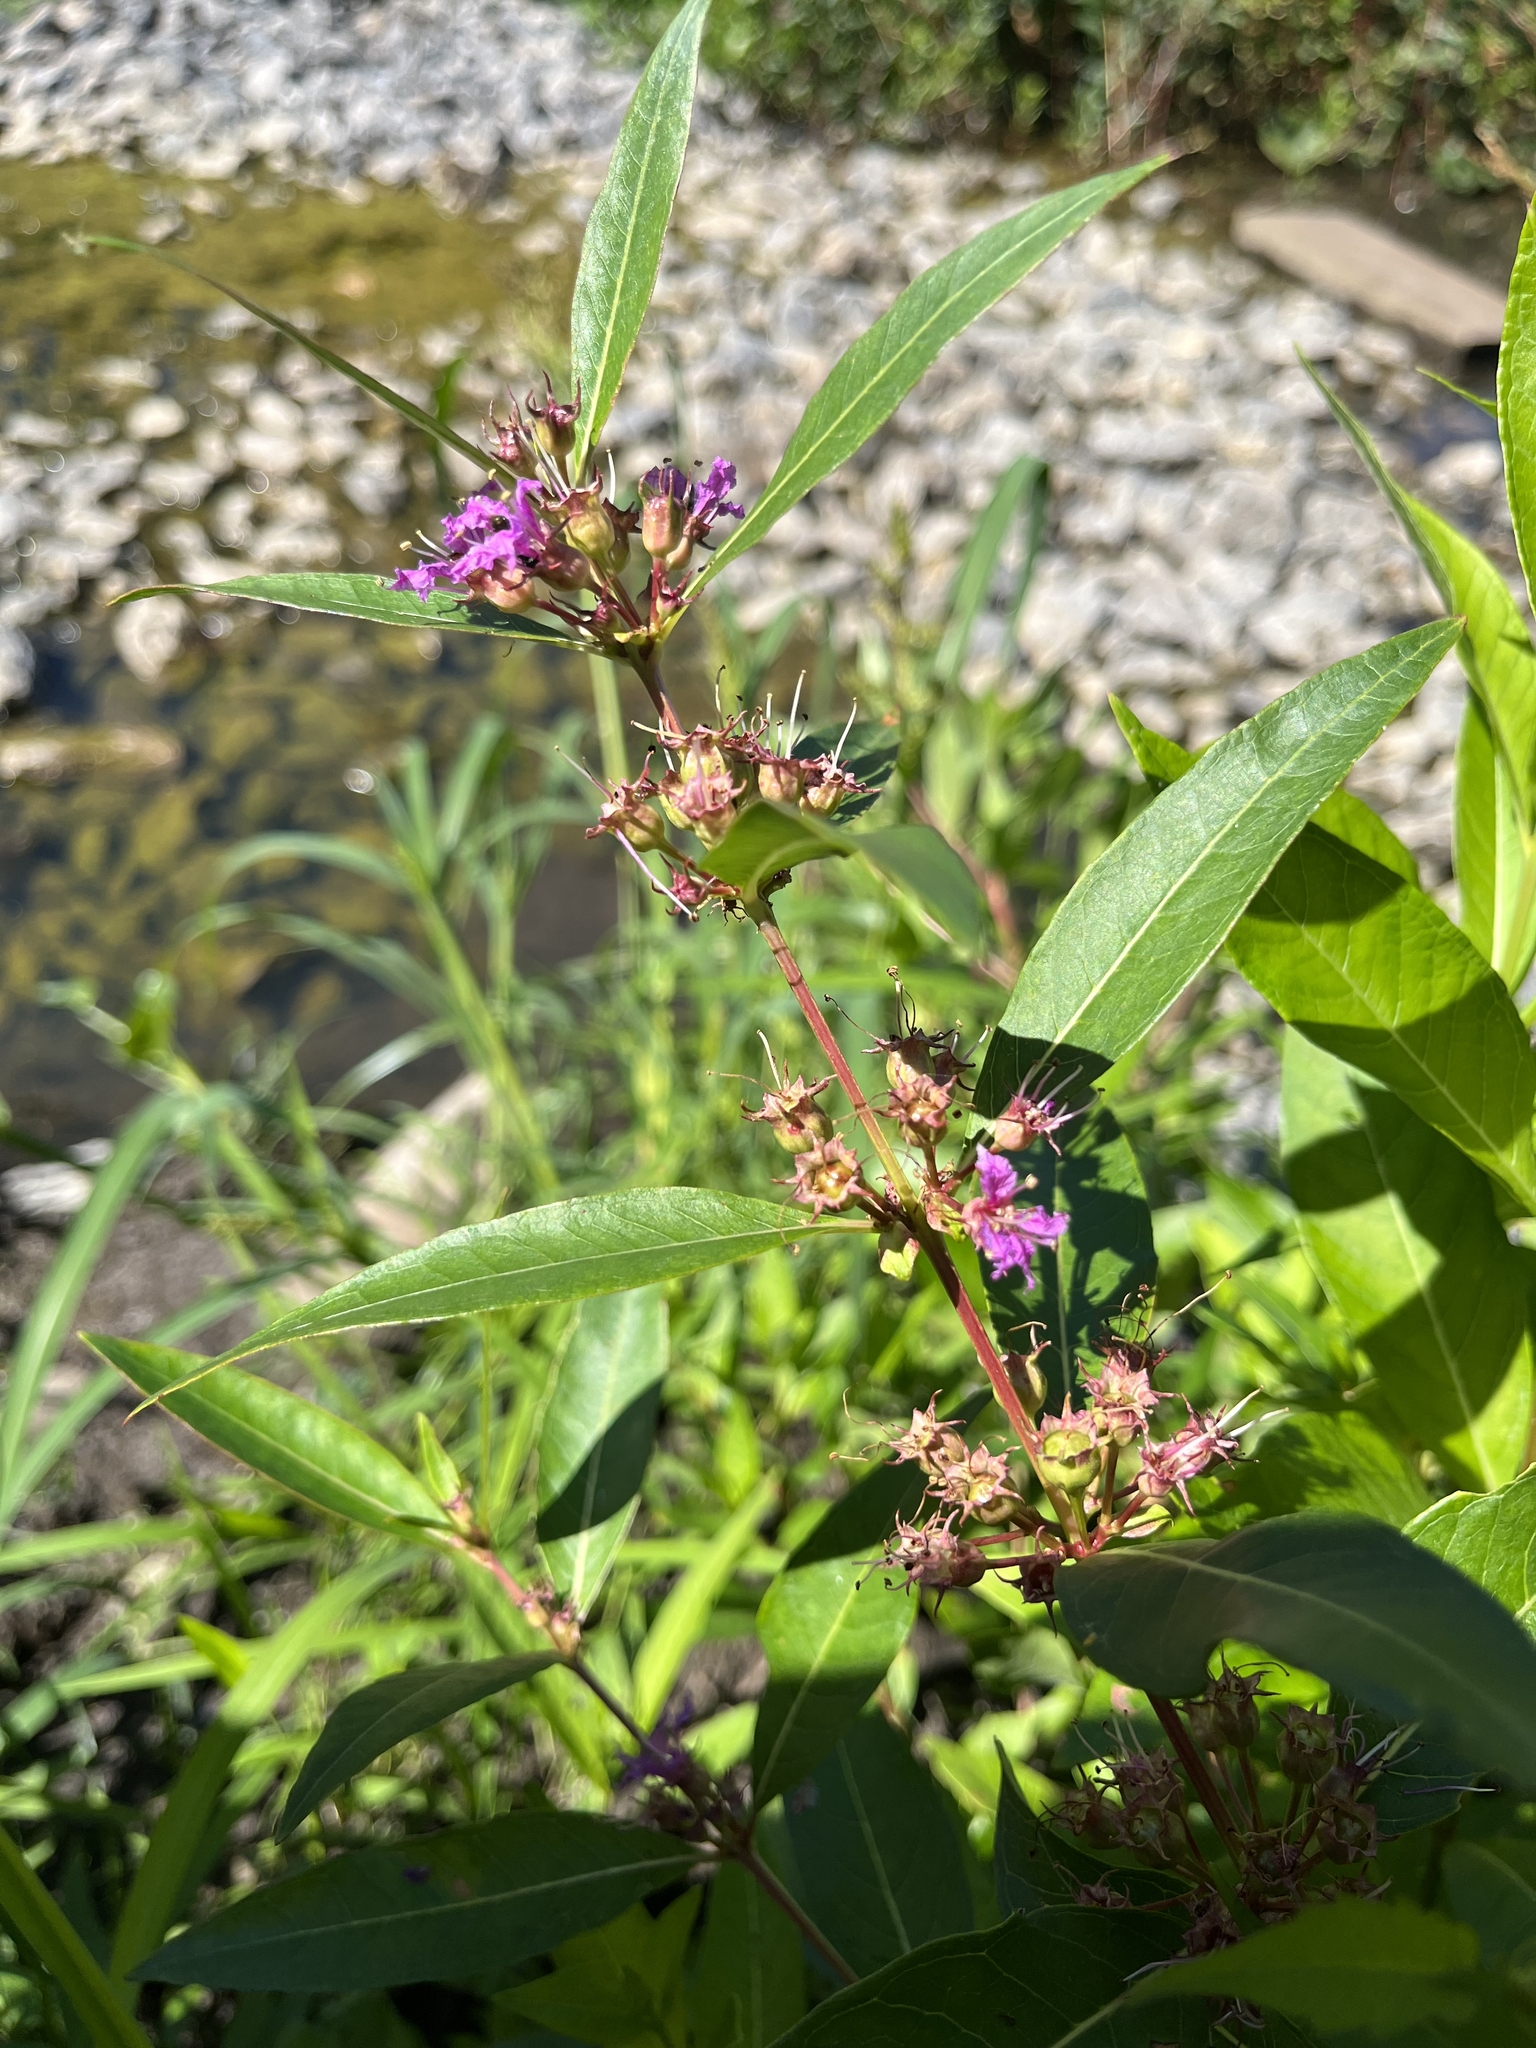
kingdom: Plantae
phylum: Tracheophyta
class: Magnoliopsida
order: Myrtales
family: Lythraceae
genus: Decodon
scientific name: Decodon verticillatus
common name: Hairy swamp loosestrife
